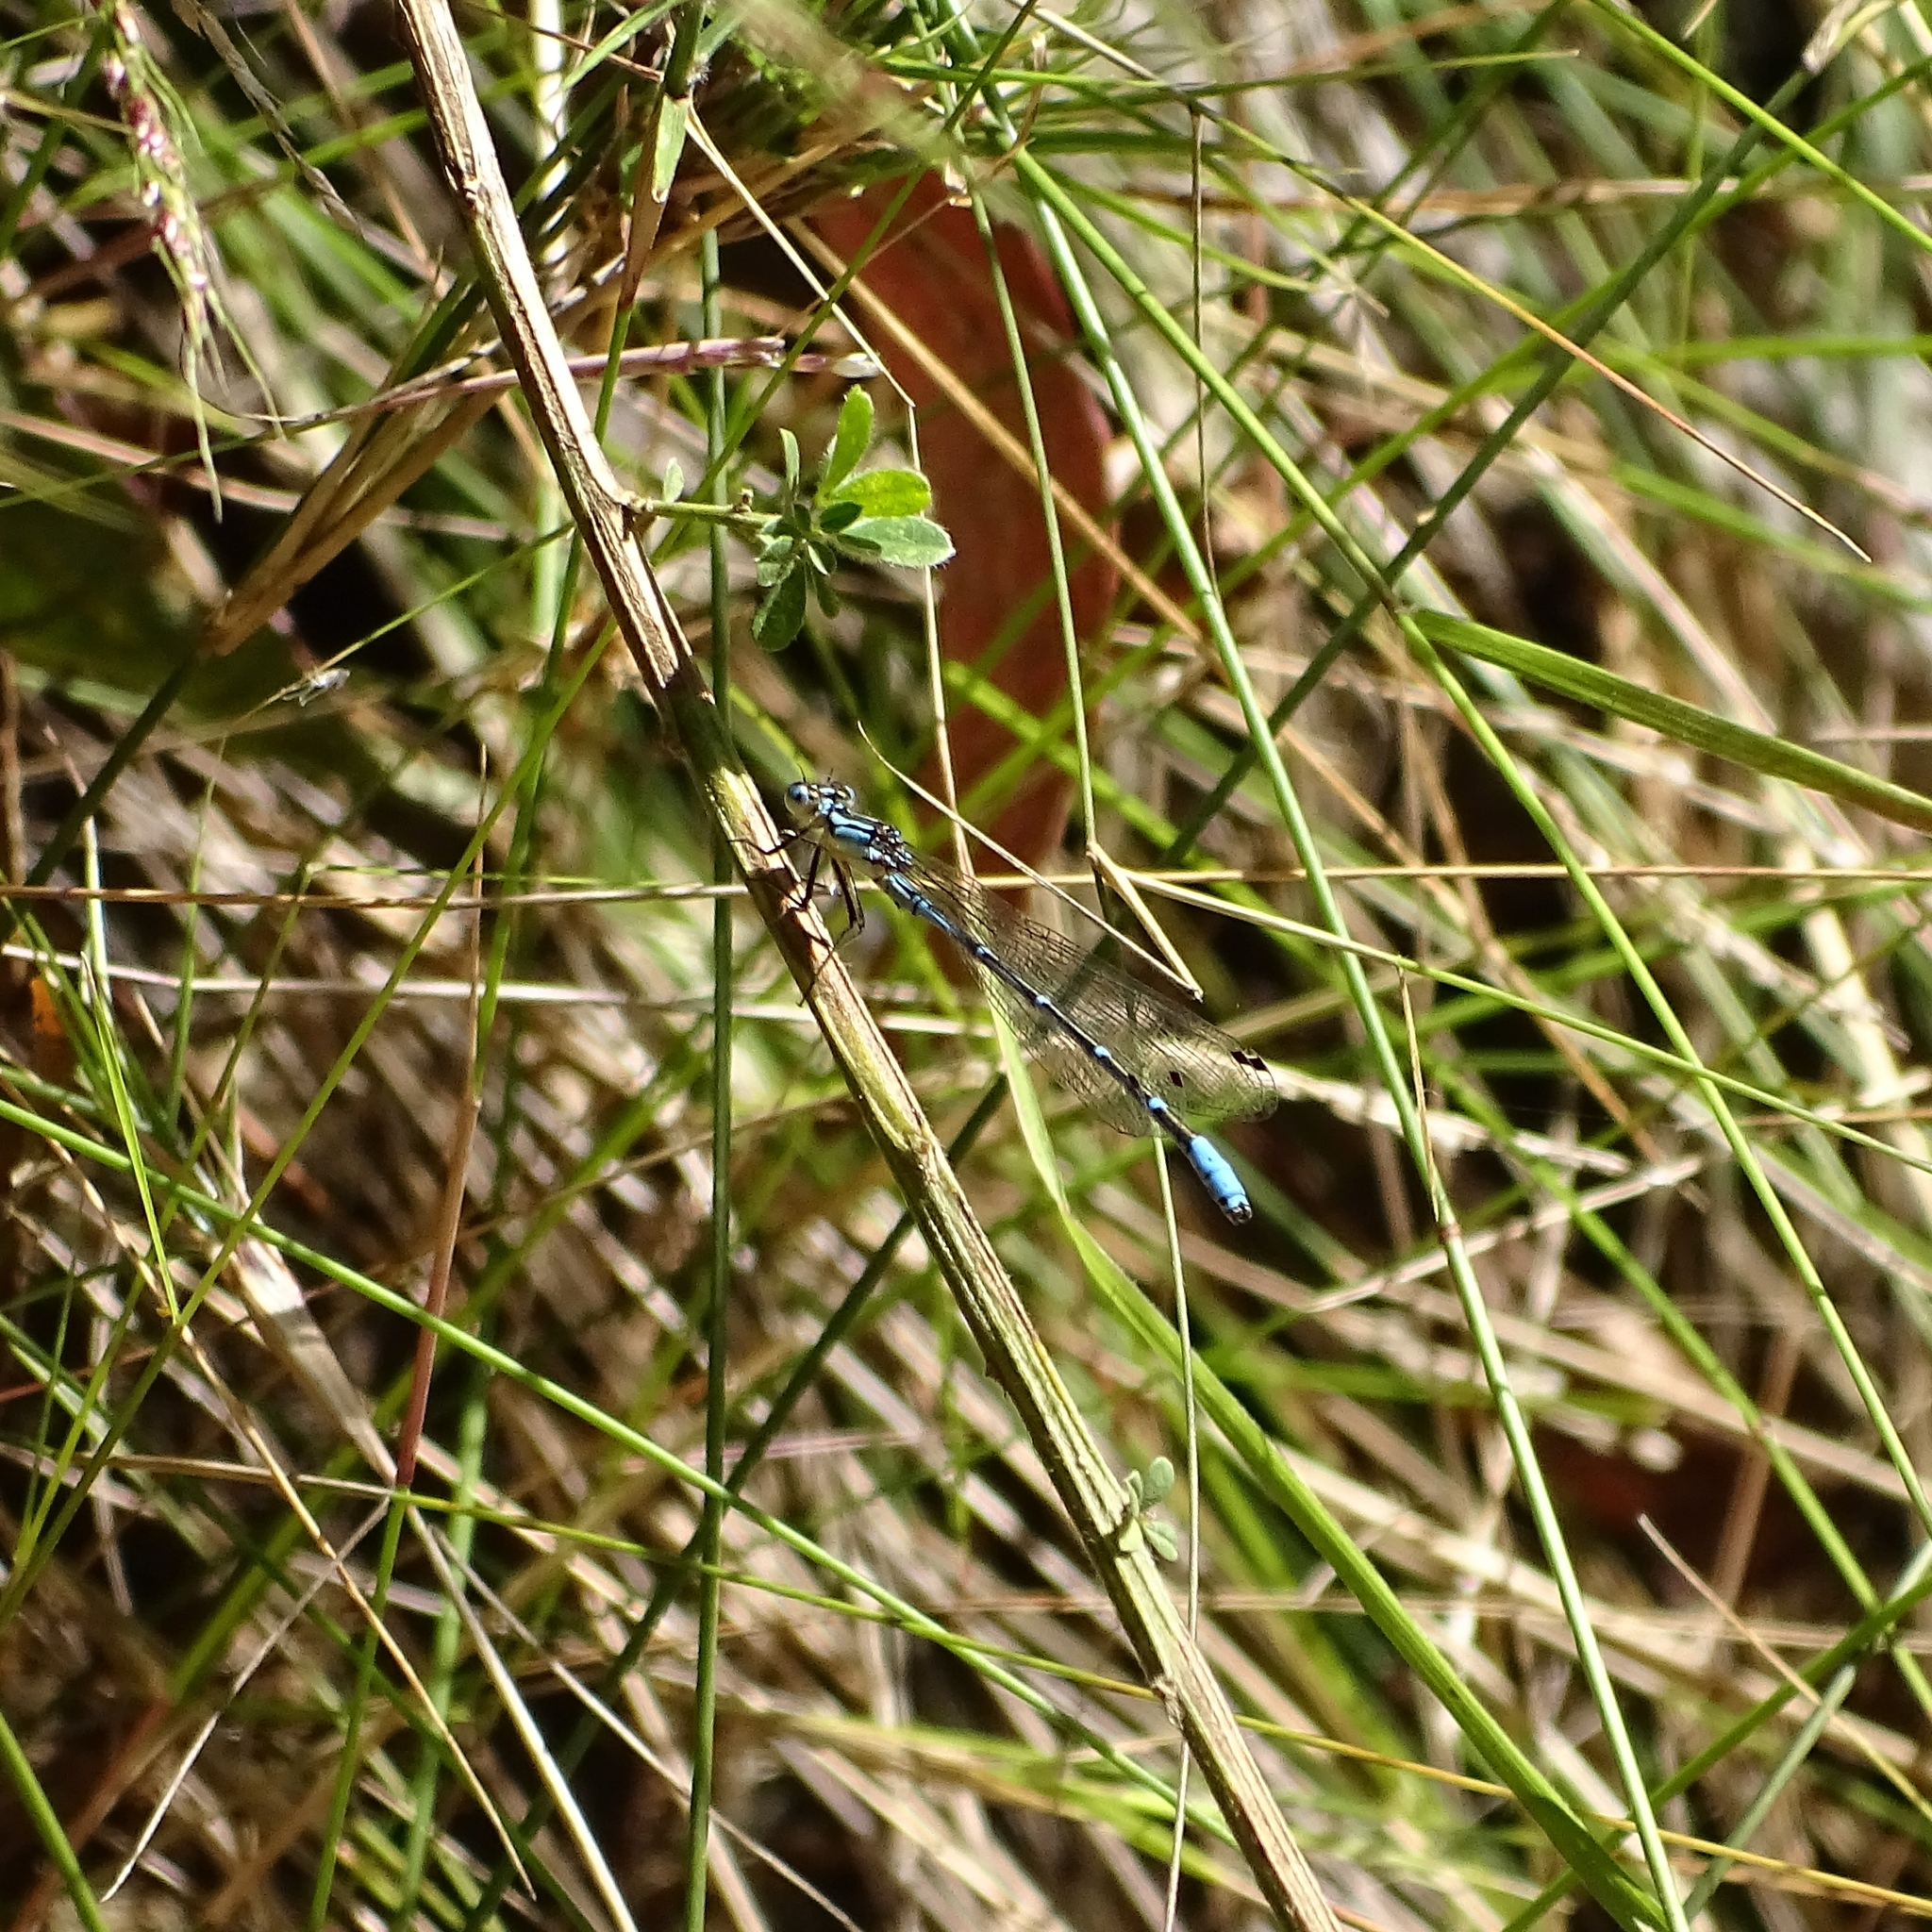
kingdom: Animalia
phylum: Arthropoda
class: Insecta
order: Odonata
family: Coenagrionidae
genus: Antiagrion
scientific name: Antiagrion gayi
